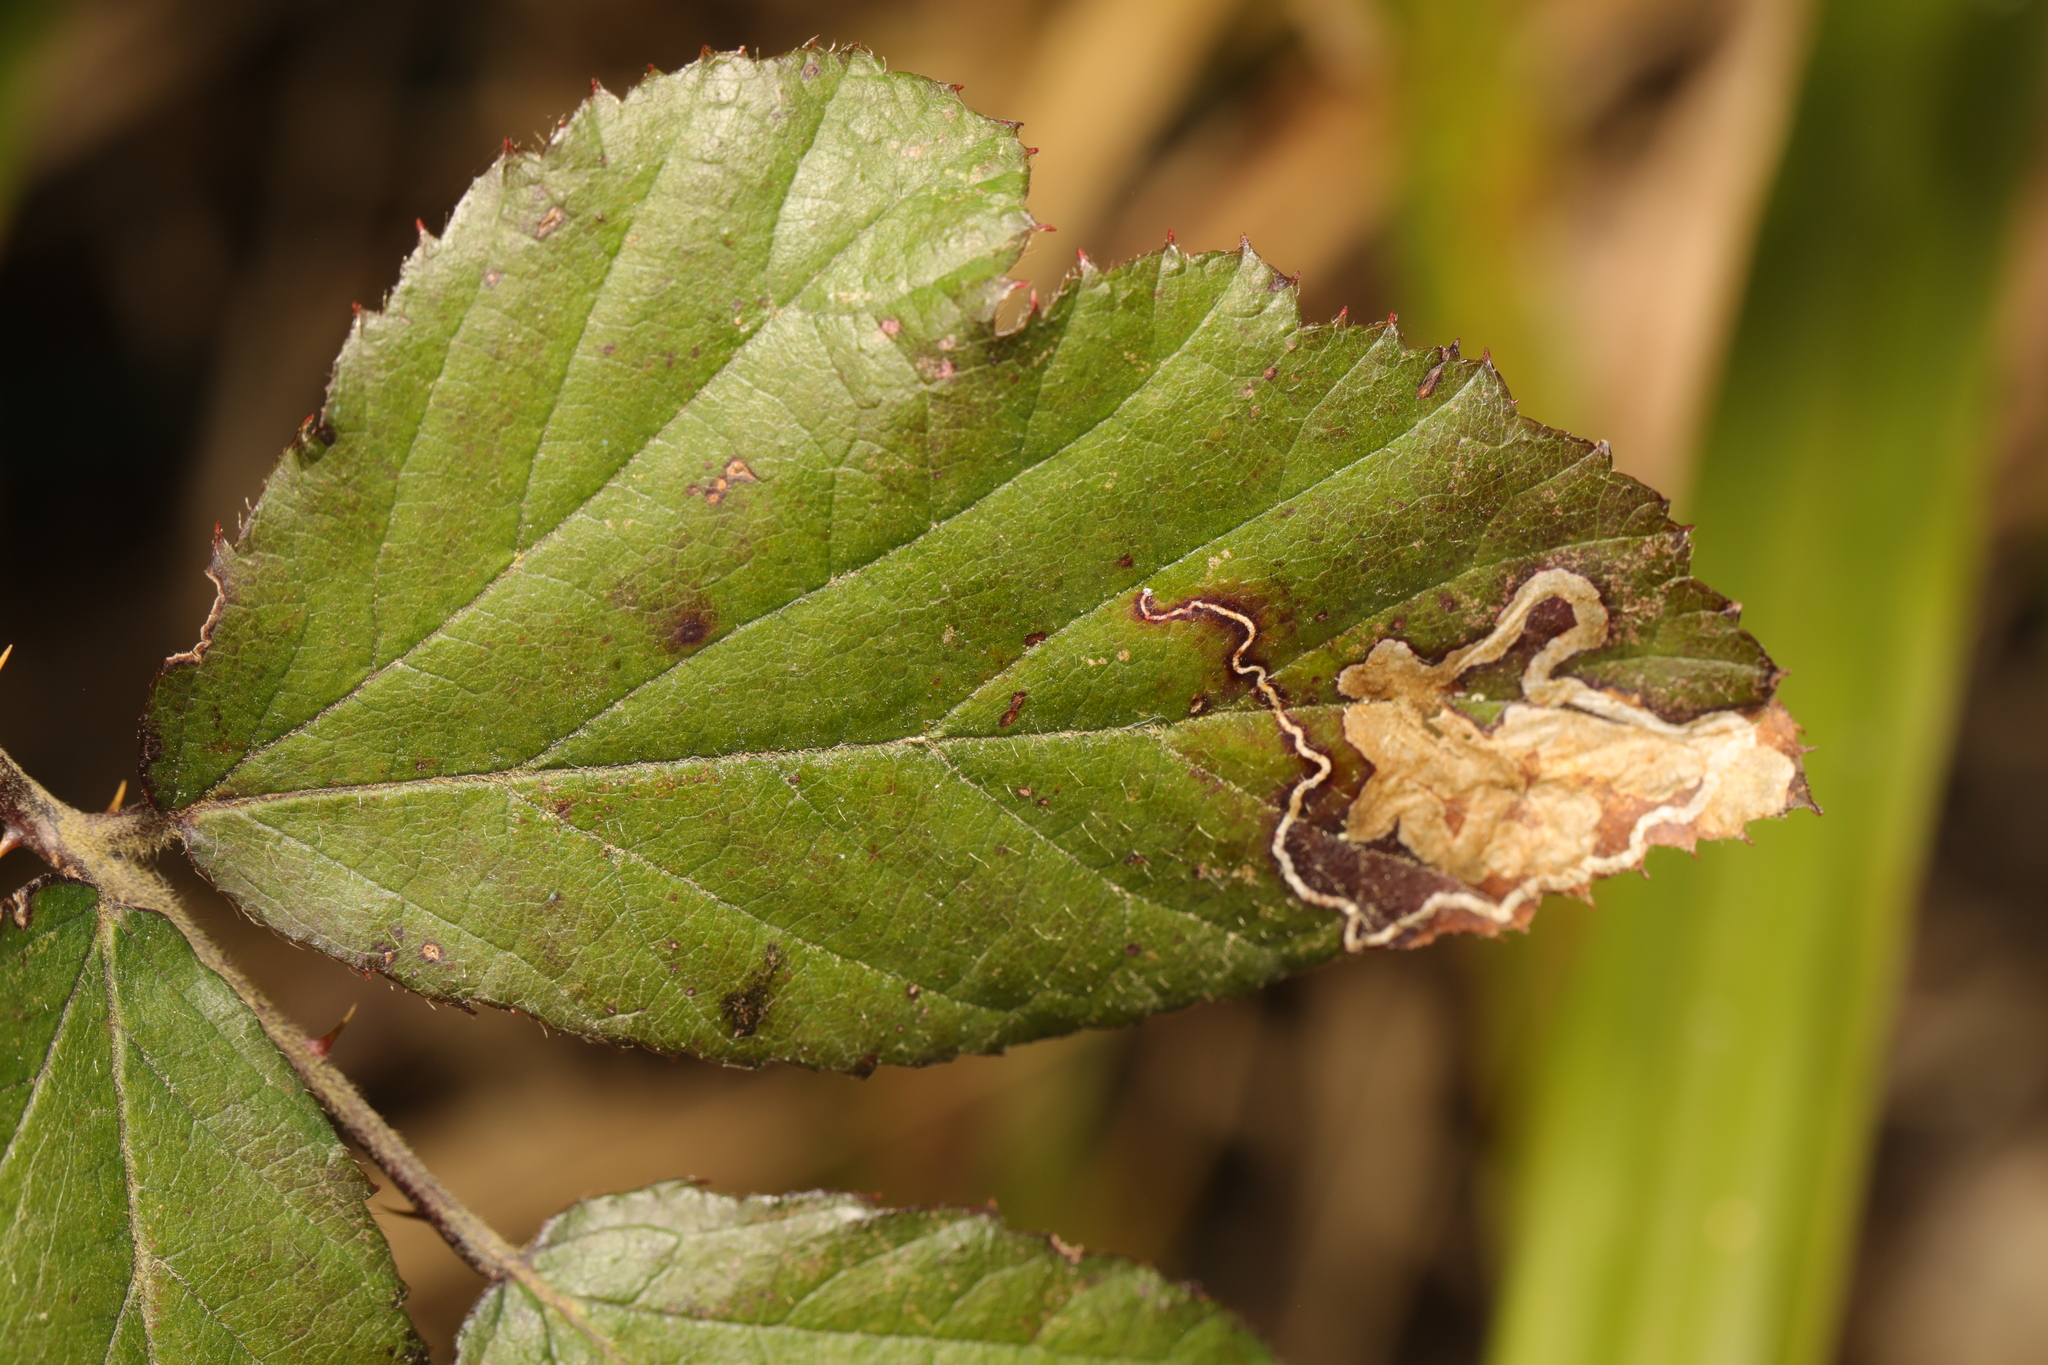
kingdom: Animalia
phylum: Arthropoda
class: Insecta
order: Lepidoptera
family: Nepticulidae
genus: Stigmella
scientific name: Stigmella aurella
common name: Golden pigmy
